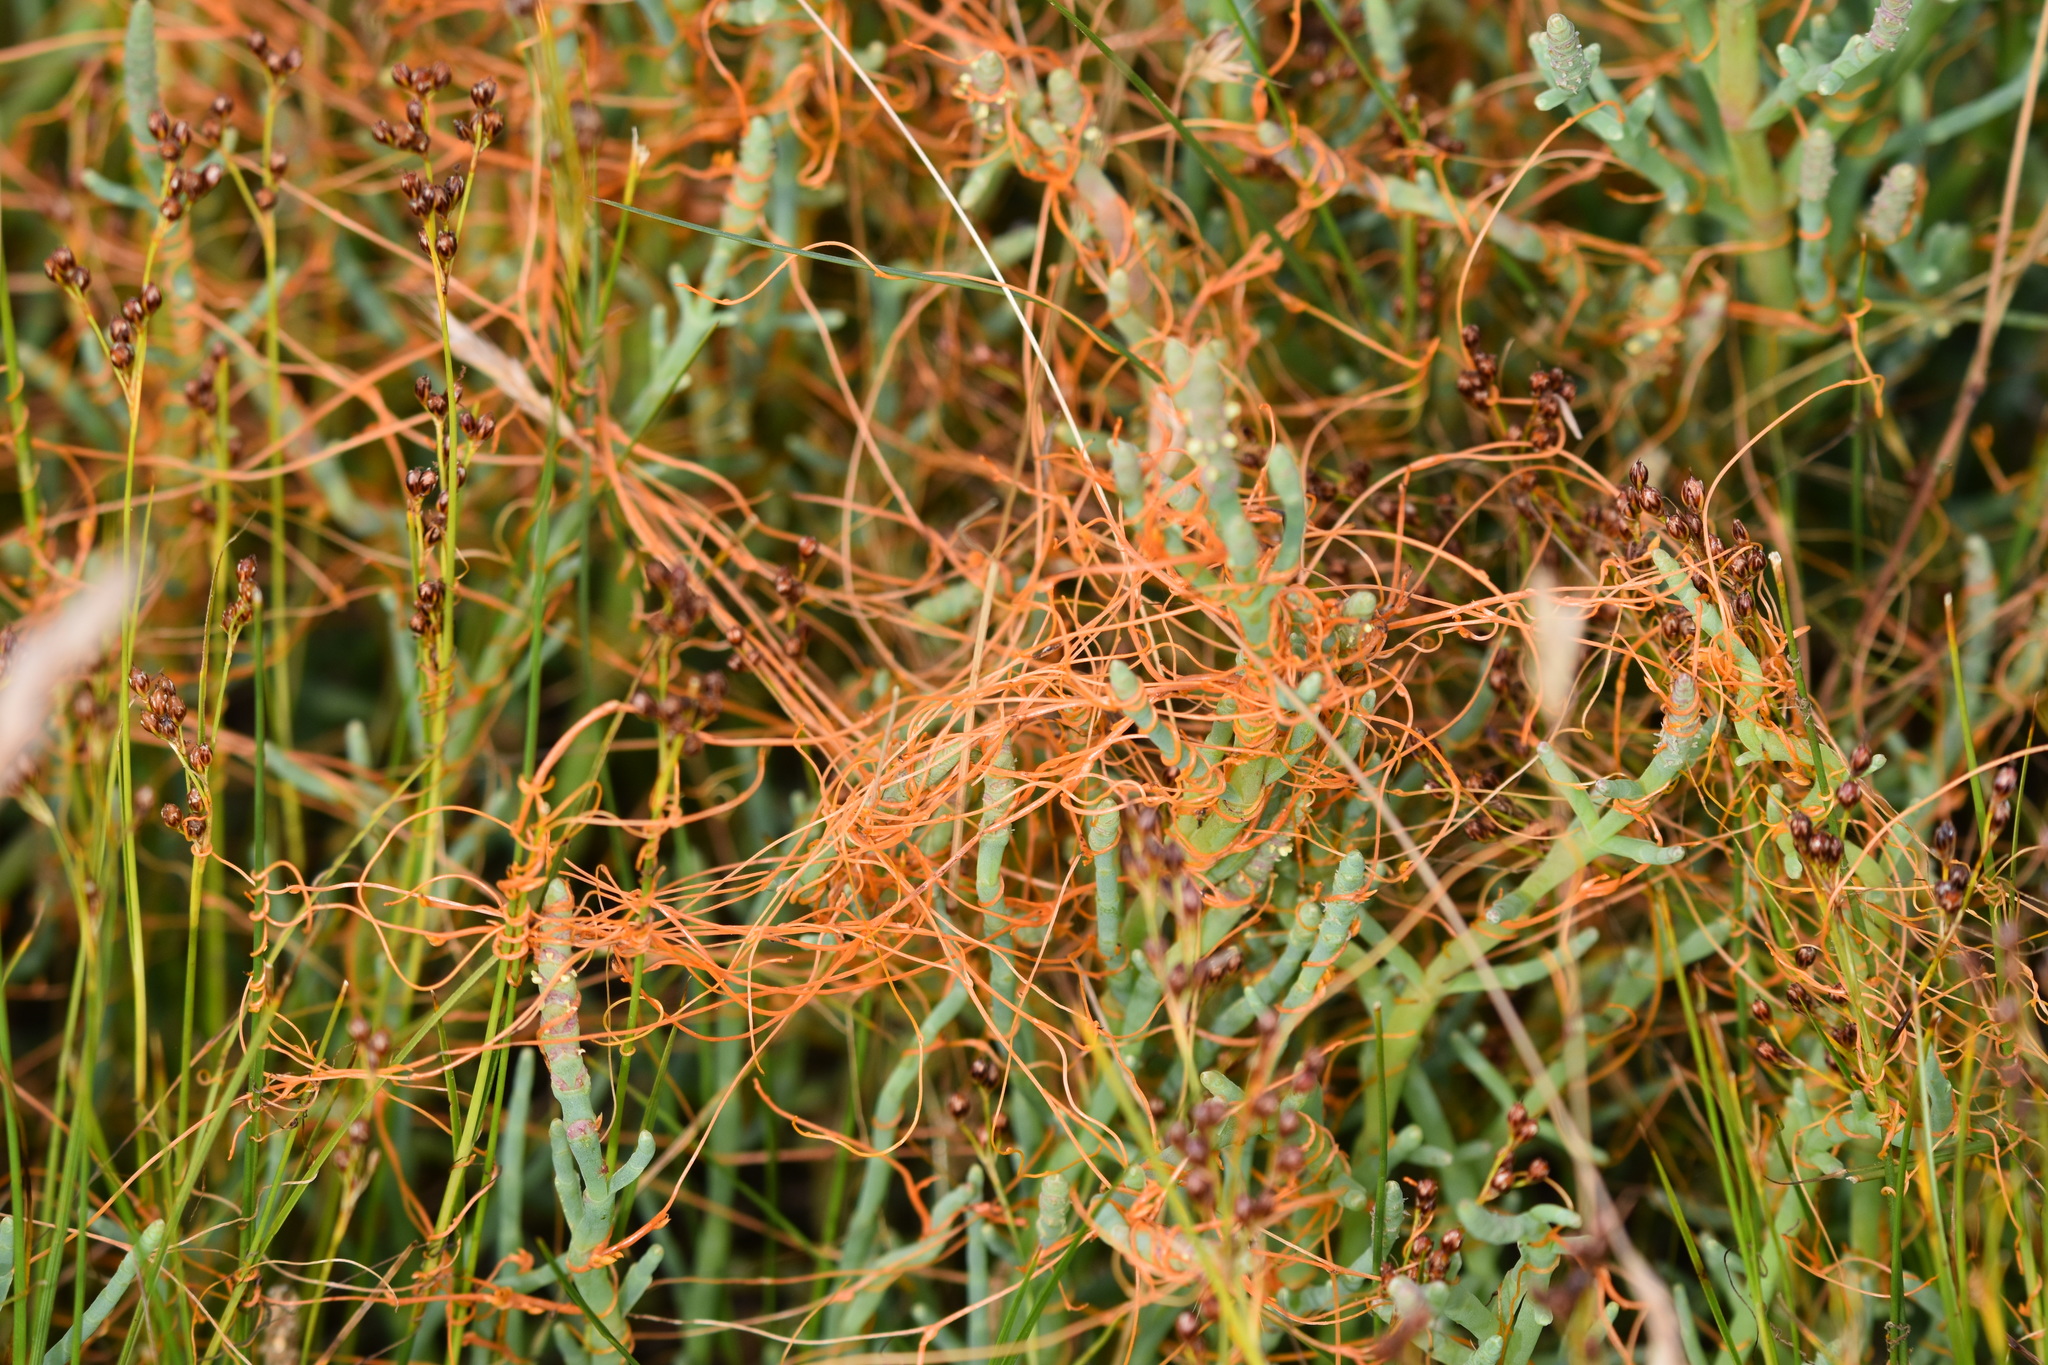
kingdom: Plantae
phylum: Tracheophyta
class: Magnoliopsida
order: Solanales
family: Convolvulaceae
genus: Cuscuta
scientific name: Cuscuta pacifica
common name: Large saltmarsh dodder
